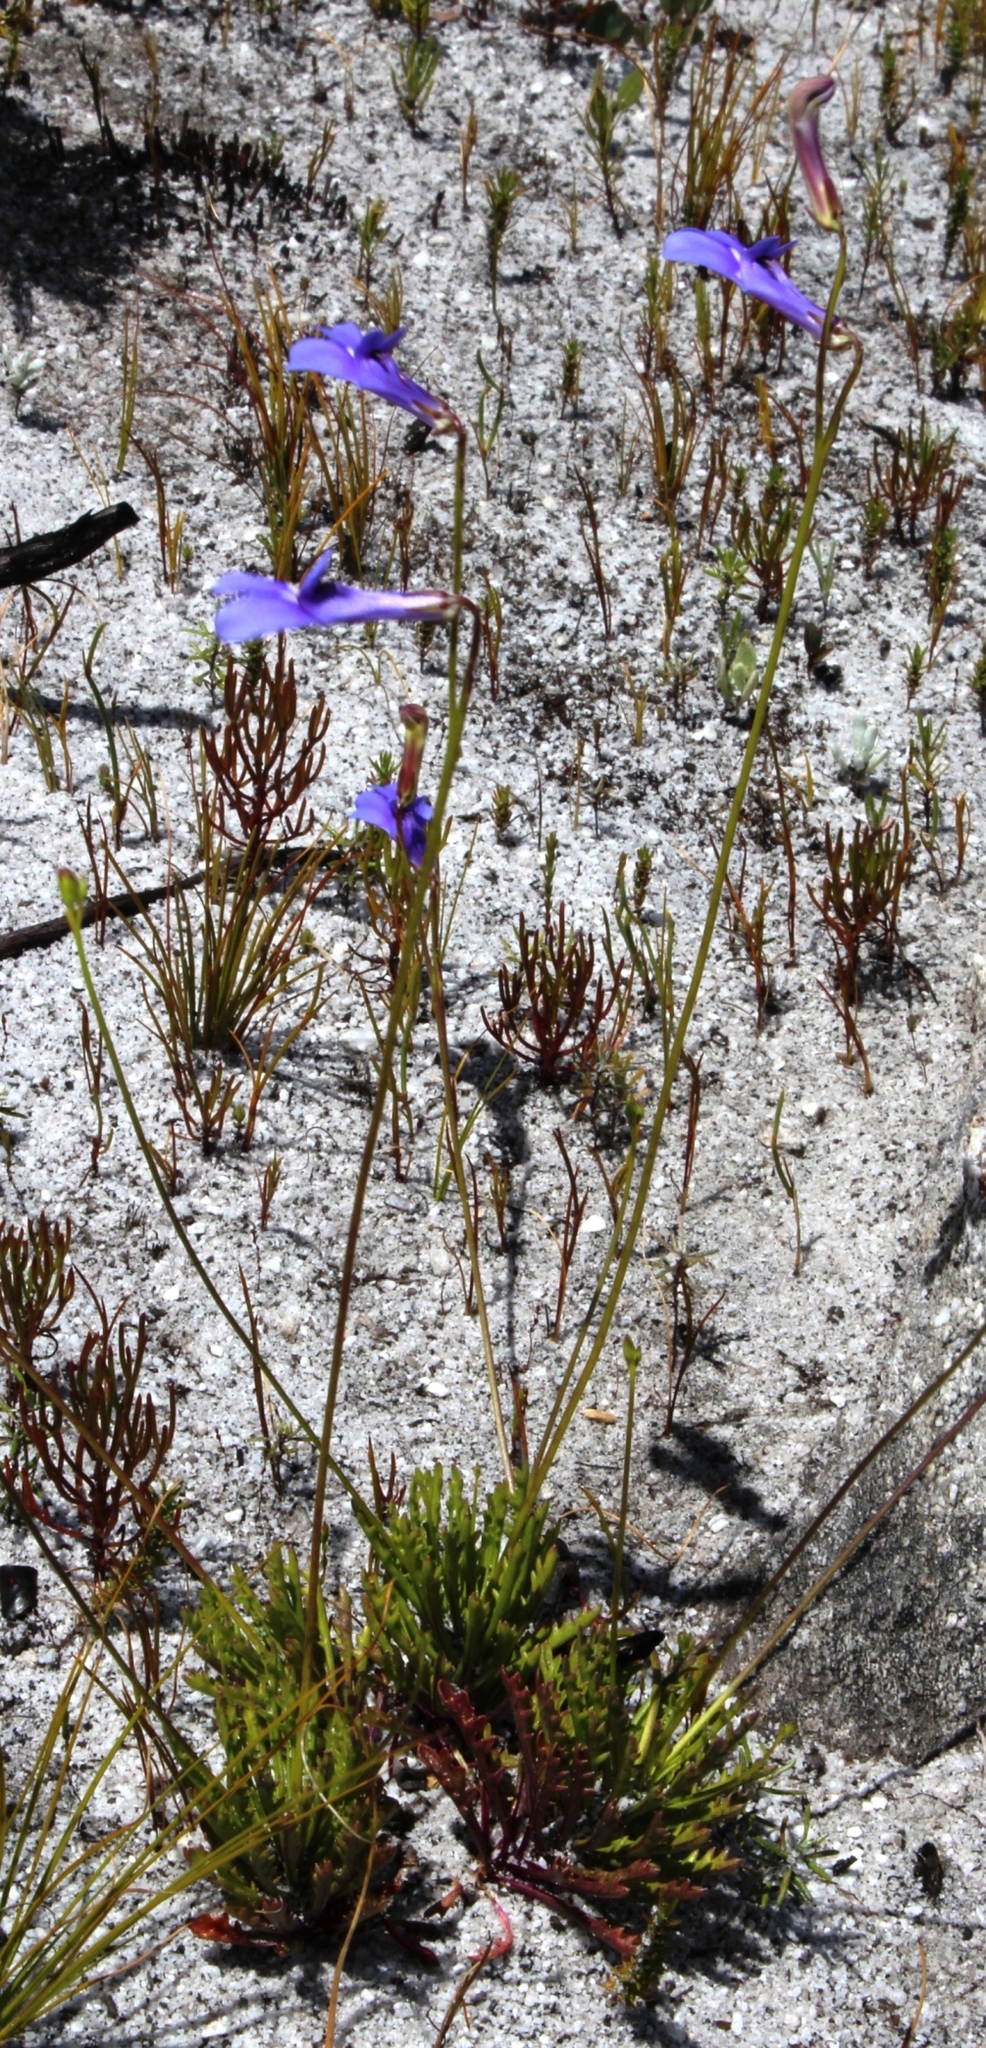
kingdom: Plantae
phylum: Tracheophyta
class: Magnoliopsida
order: Asterales
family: Campanulaceae
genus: Lobelia
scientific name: Lobelia coronopifolia
